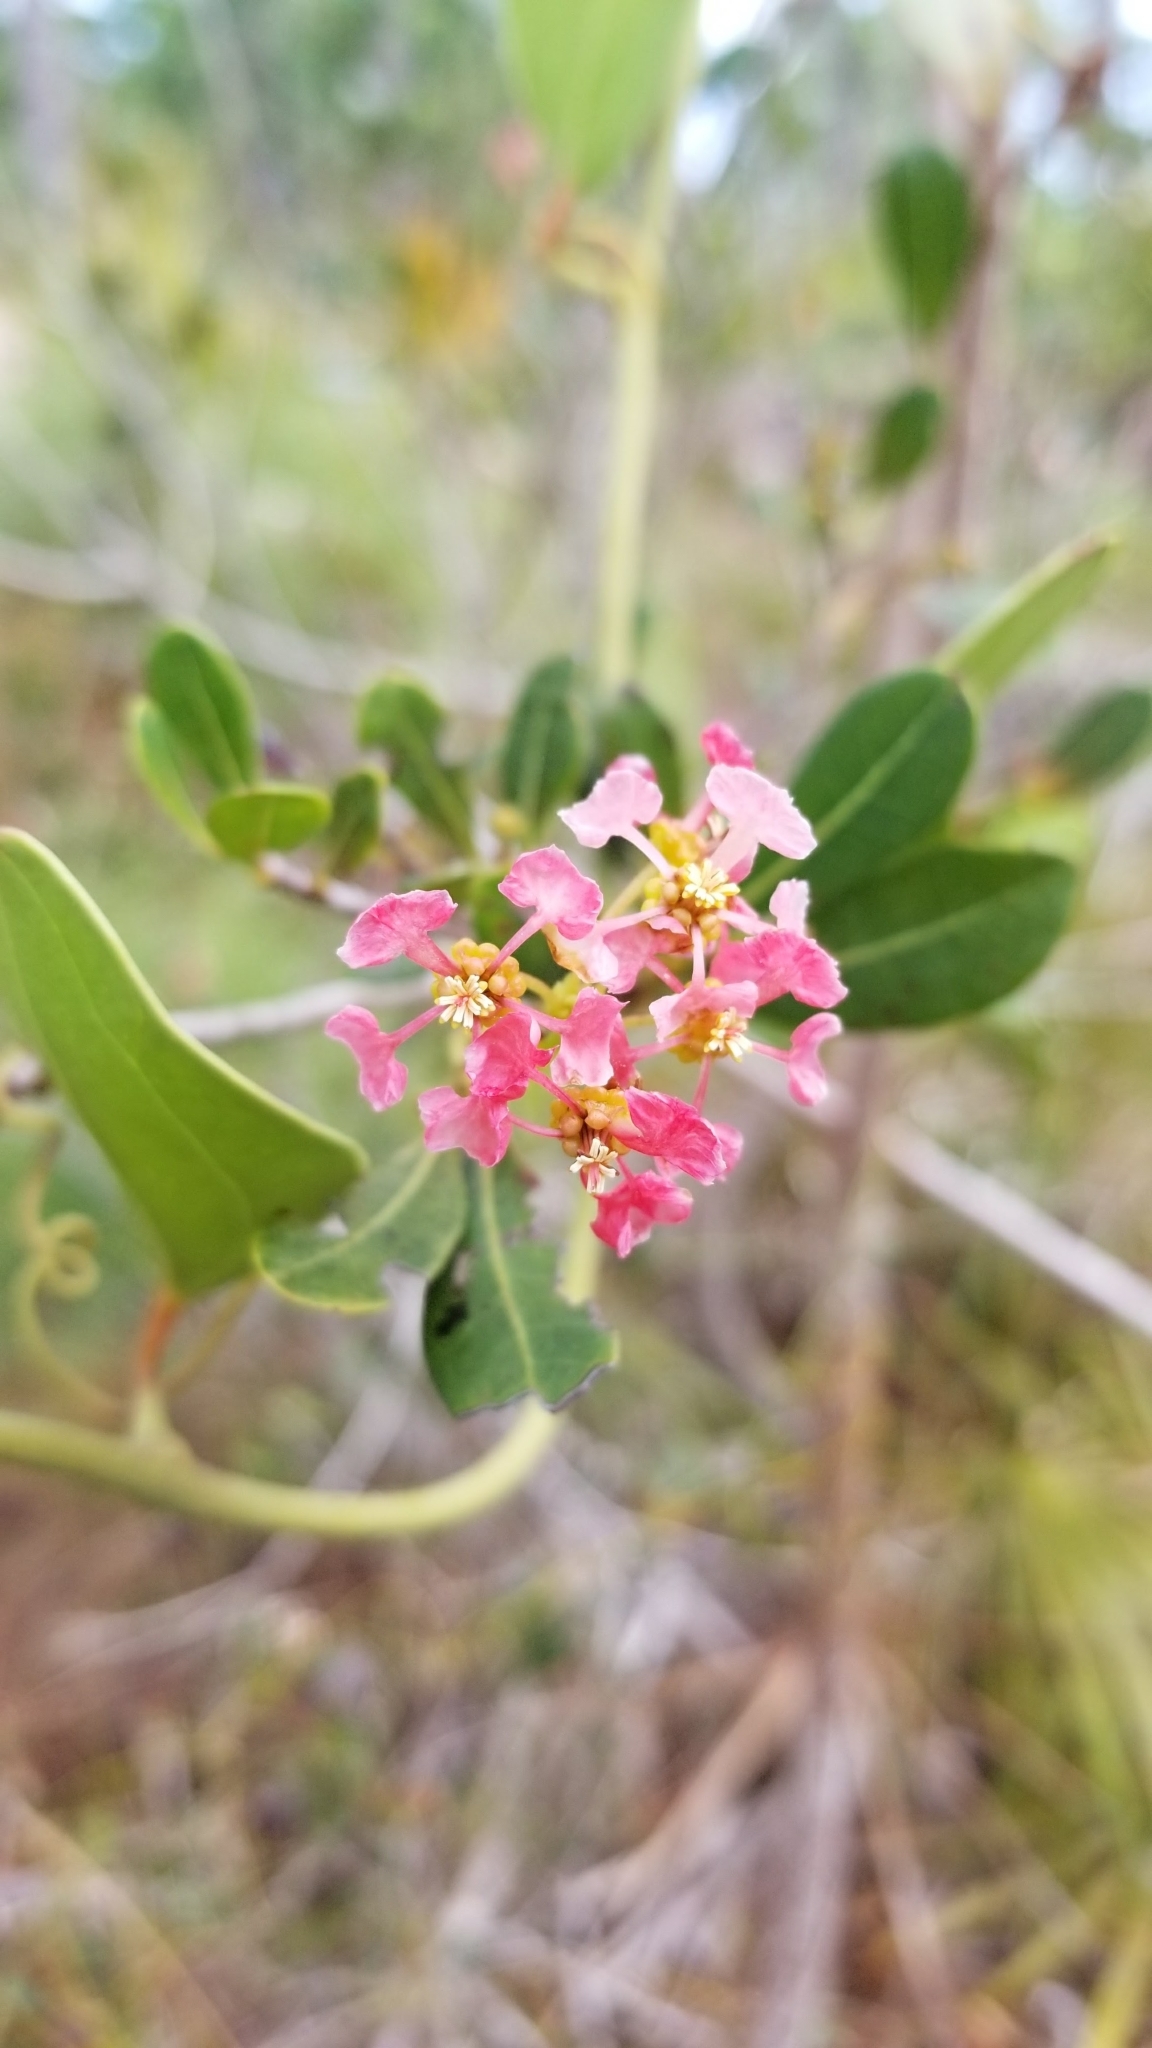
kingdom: Plantae
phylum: Tracheophyta
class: Magnoliopsida
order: Malpighiales
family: Malpighiaceae
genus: Byrsonima
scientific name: Byrsonima lucida
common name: Clam-cherry
